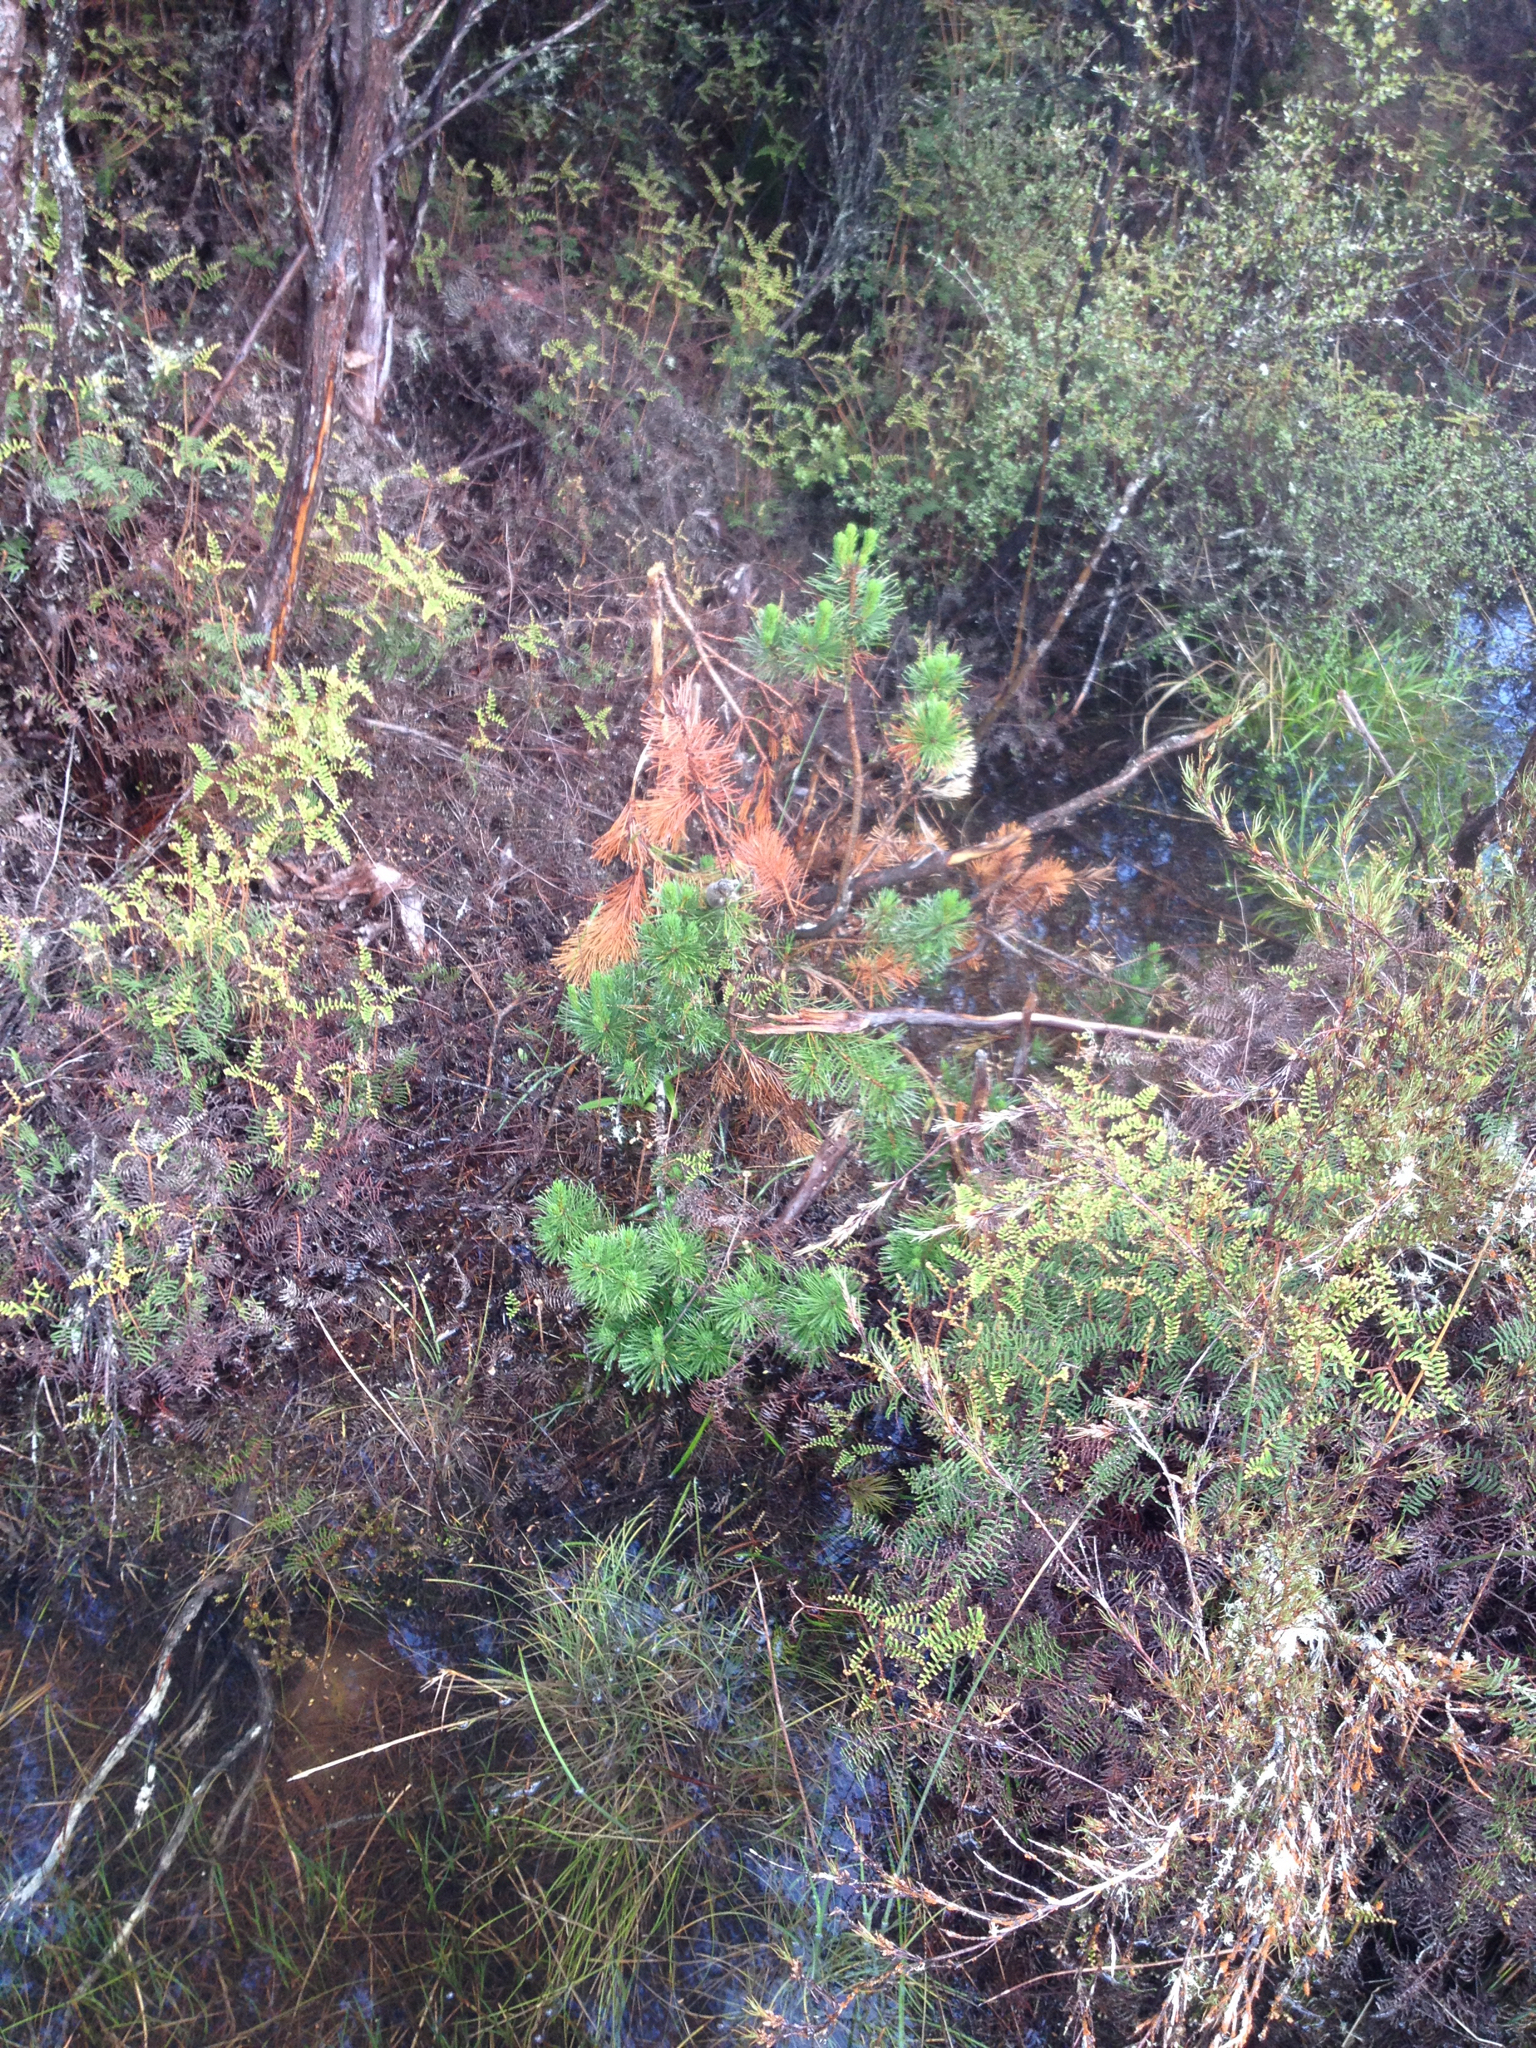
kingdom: Plantae
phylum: Tracheophyta
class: Pinopsida
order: Pinales
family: Pinaceae
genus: Pinus
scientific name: Pinus contorta
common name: Lodgepole pine
